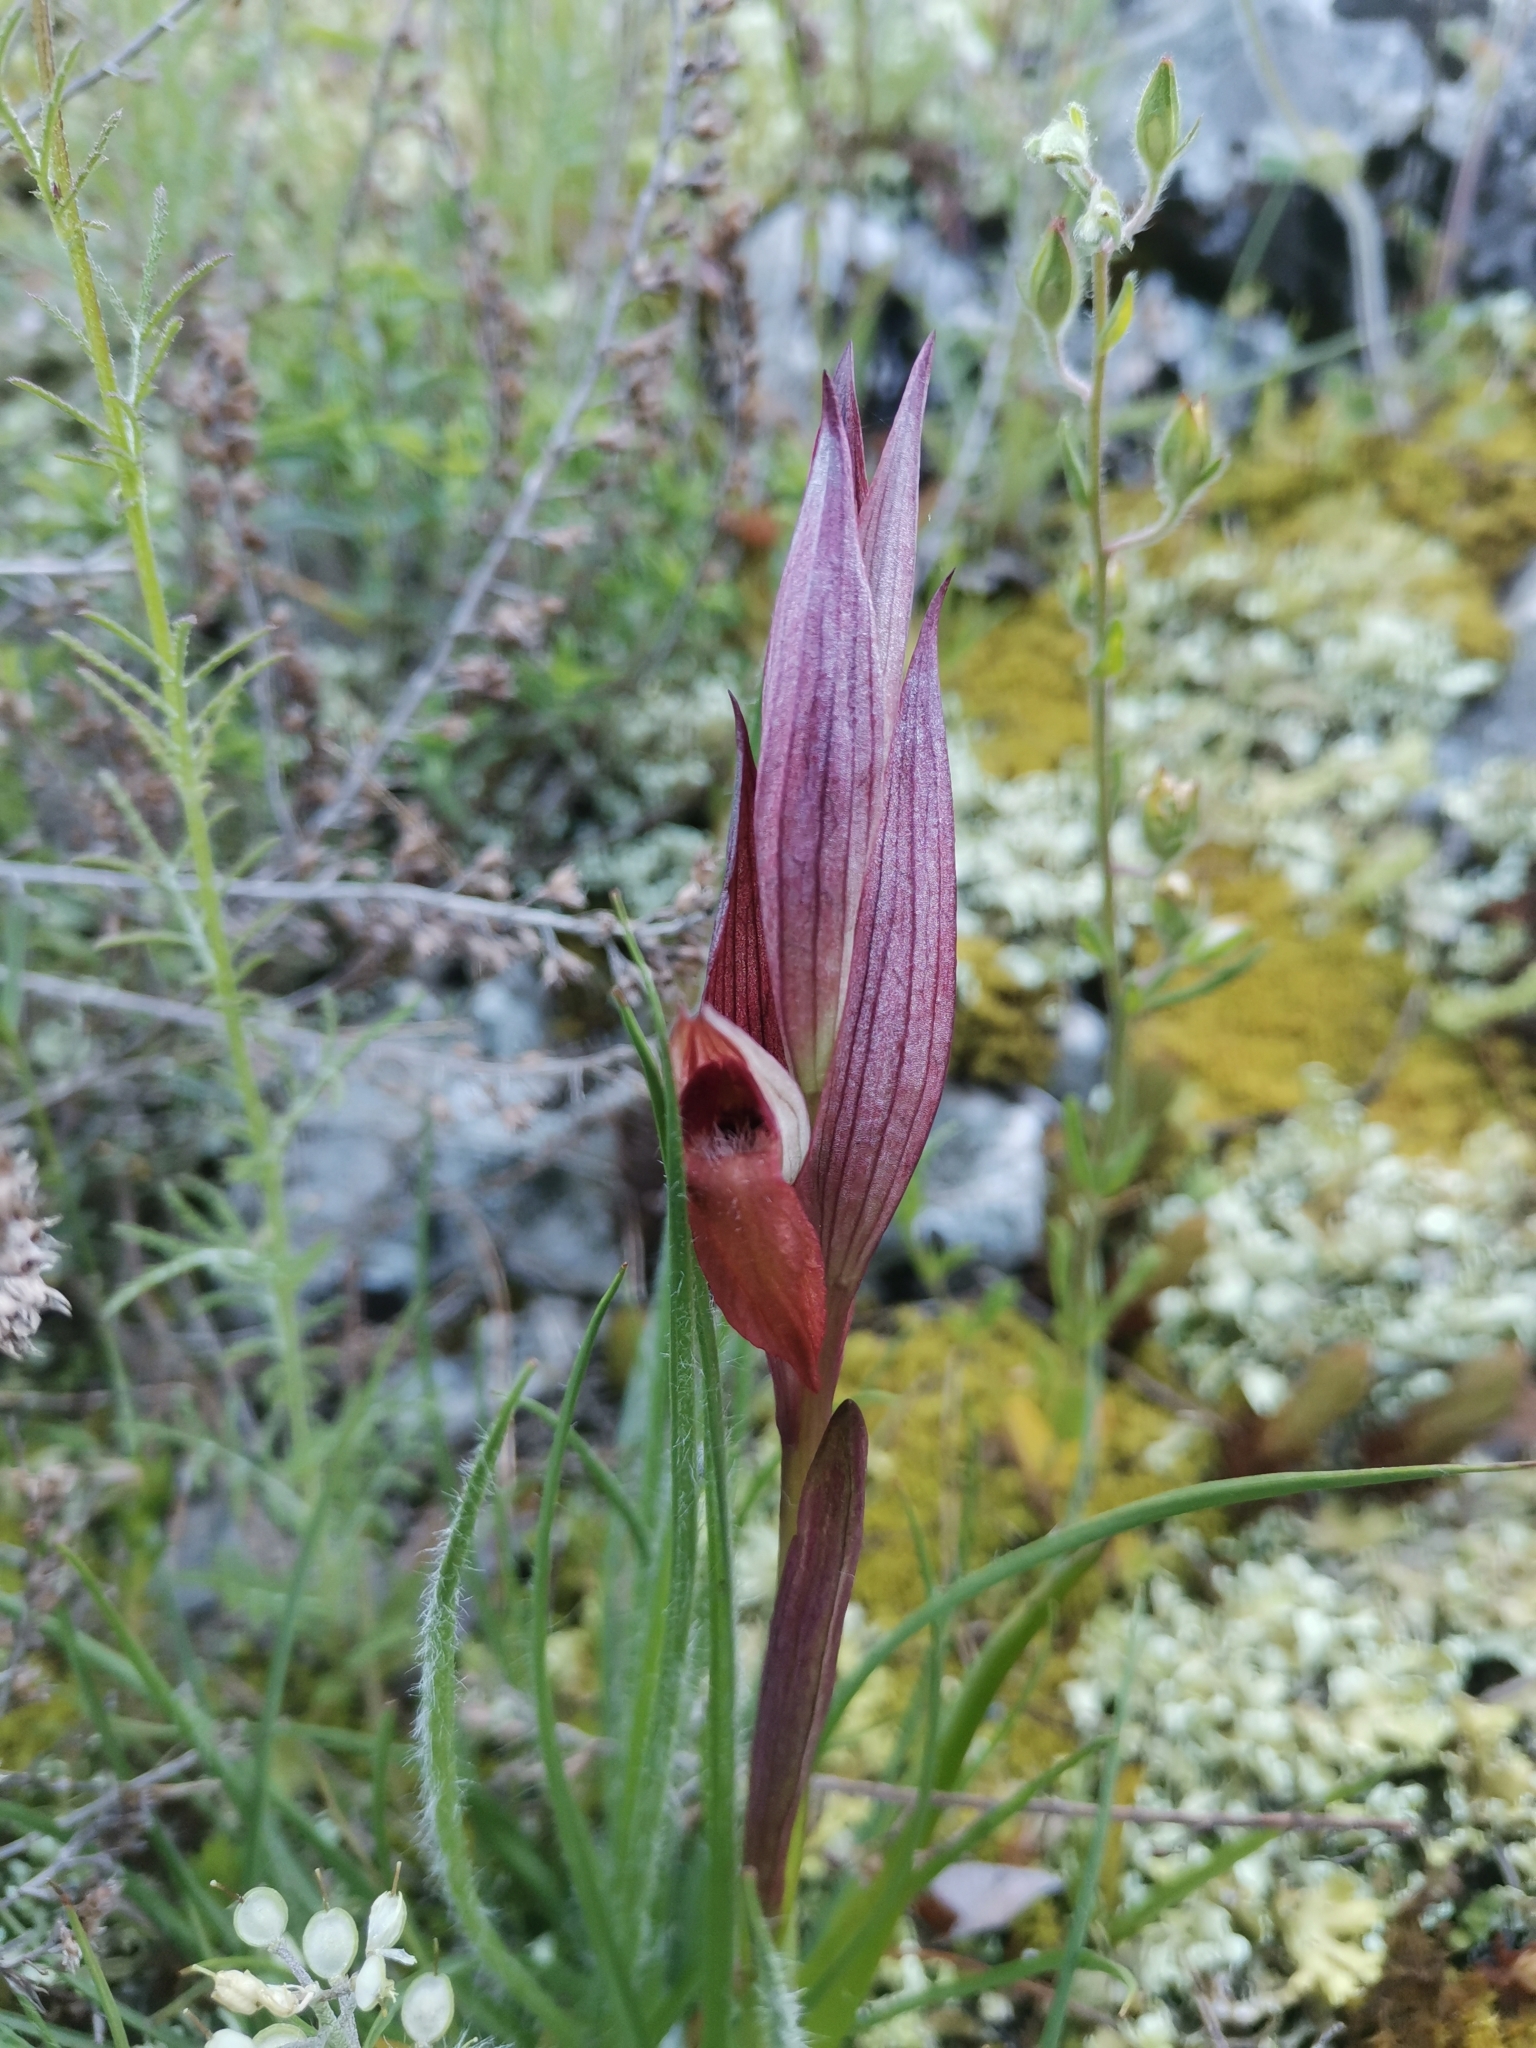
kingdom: Plantae
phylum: Tracheophyta
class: Liliopsida
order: Asparagales
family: Orchidaceae
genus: Serapias
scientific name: Serapias vomeracea
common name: Long-lipped tongue-orchid
